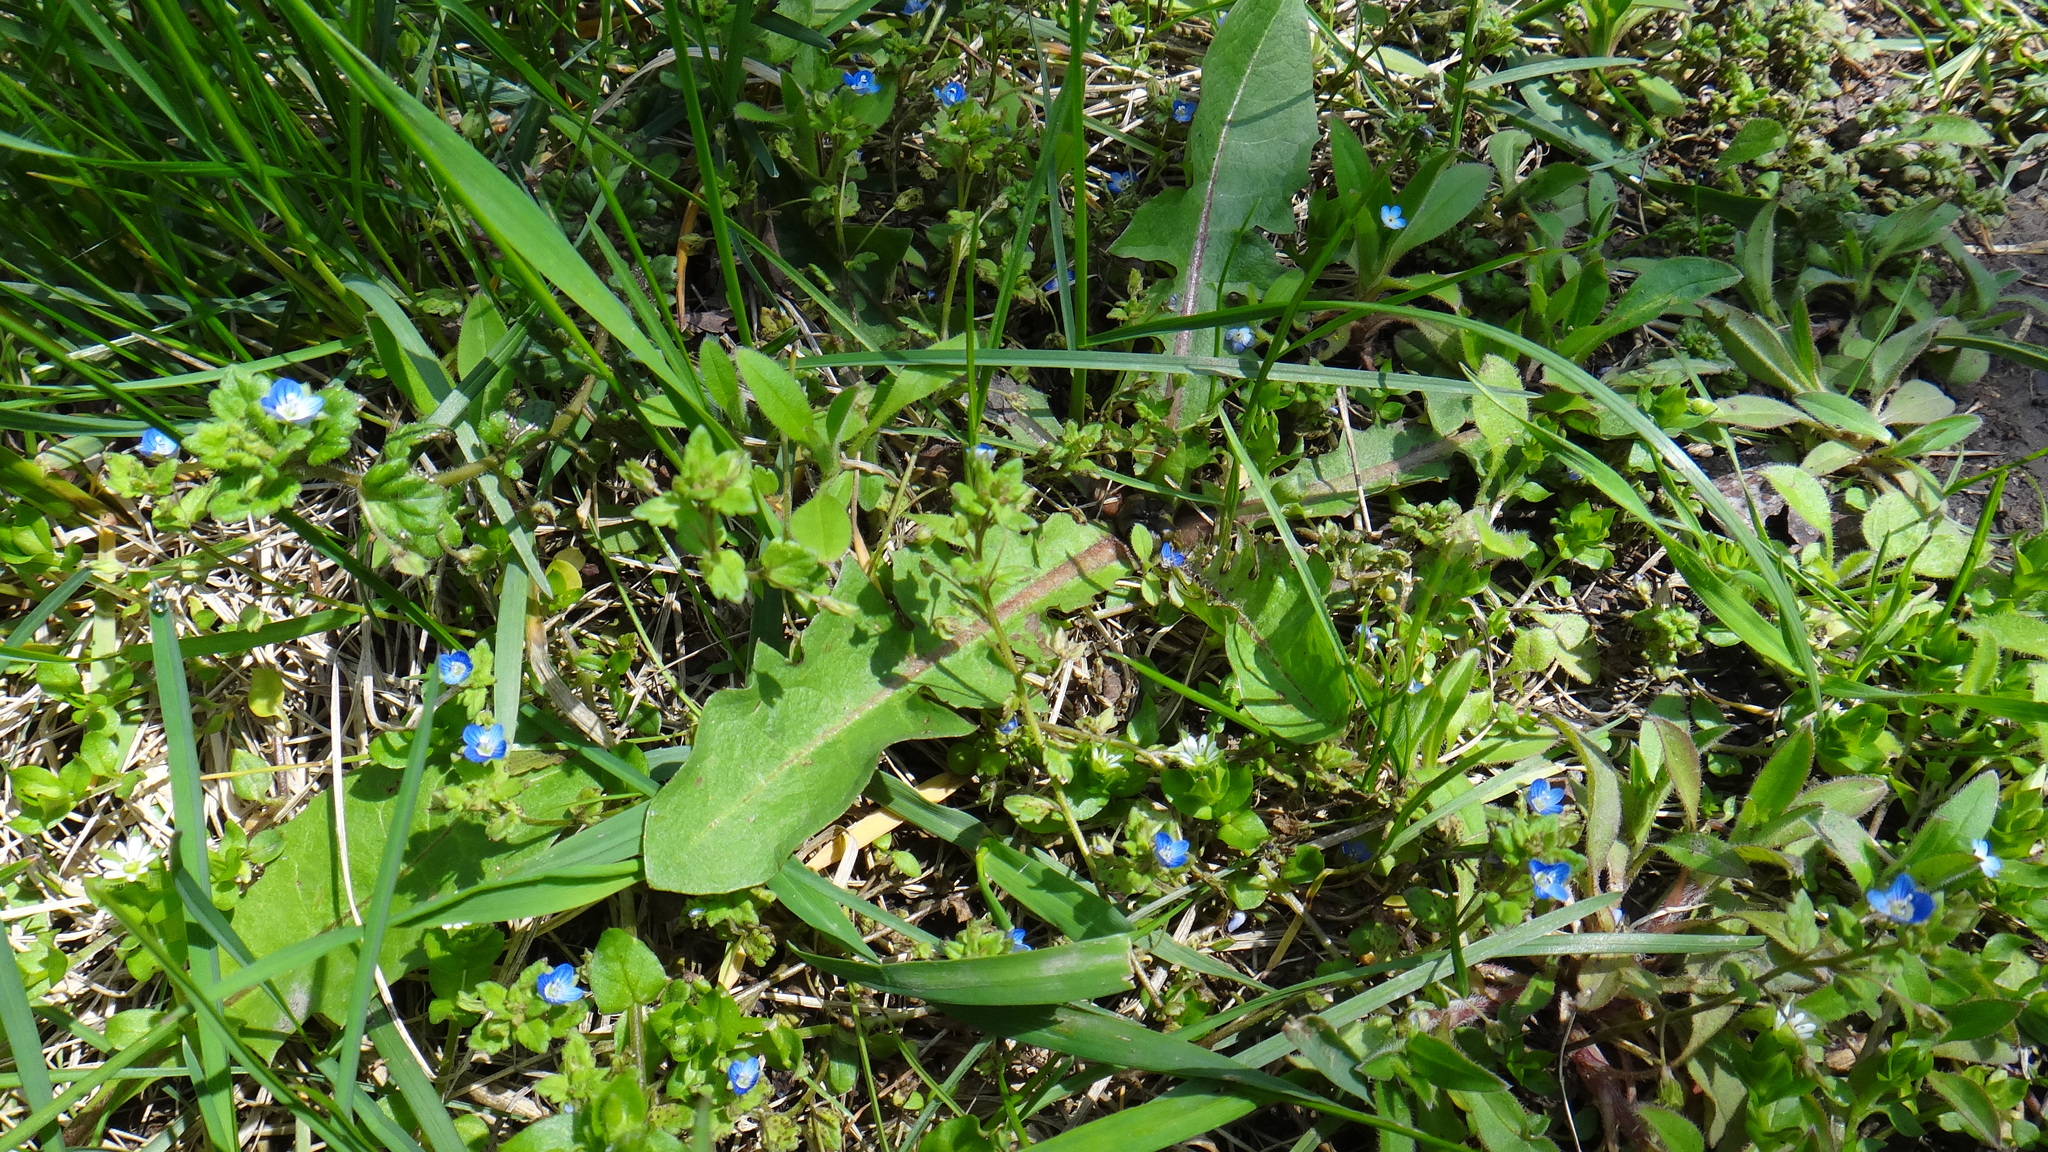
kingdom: Plantae
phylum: Tracheophyta
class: Magnoliopsida
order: Lamiales
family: Plantaginaceae
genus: Veronica
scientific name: Veronica polita
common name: Grey field-speedwell
